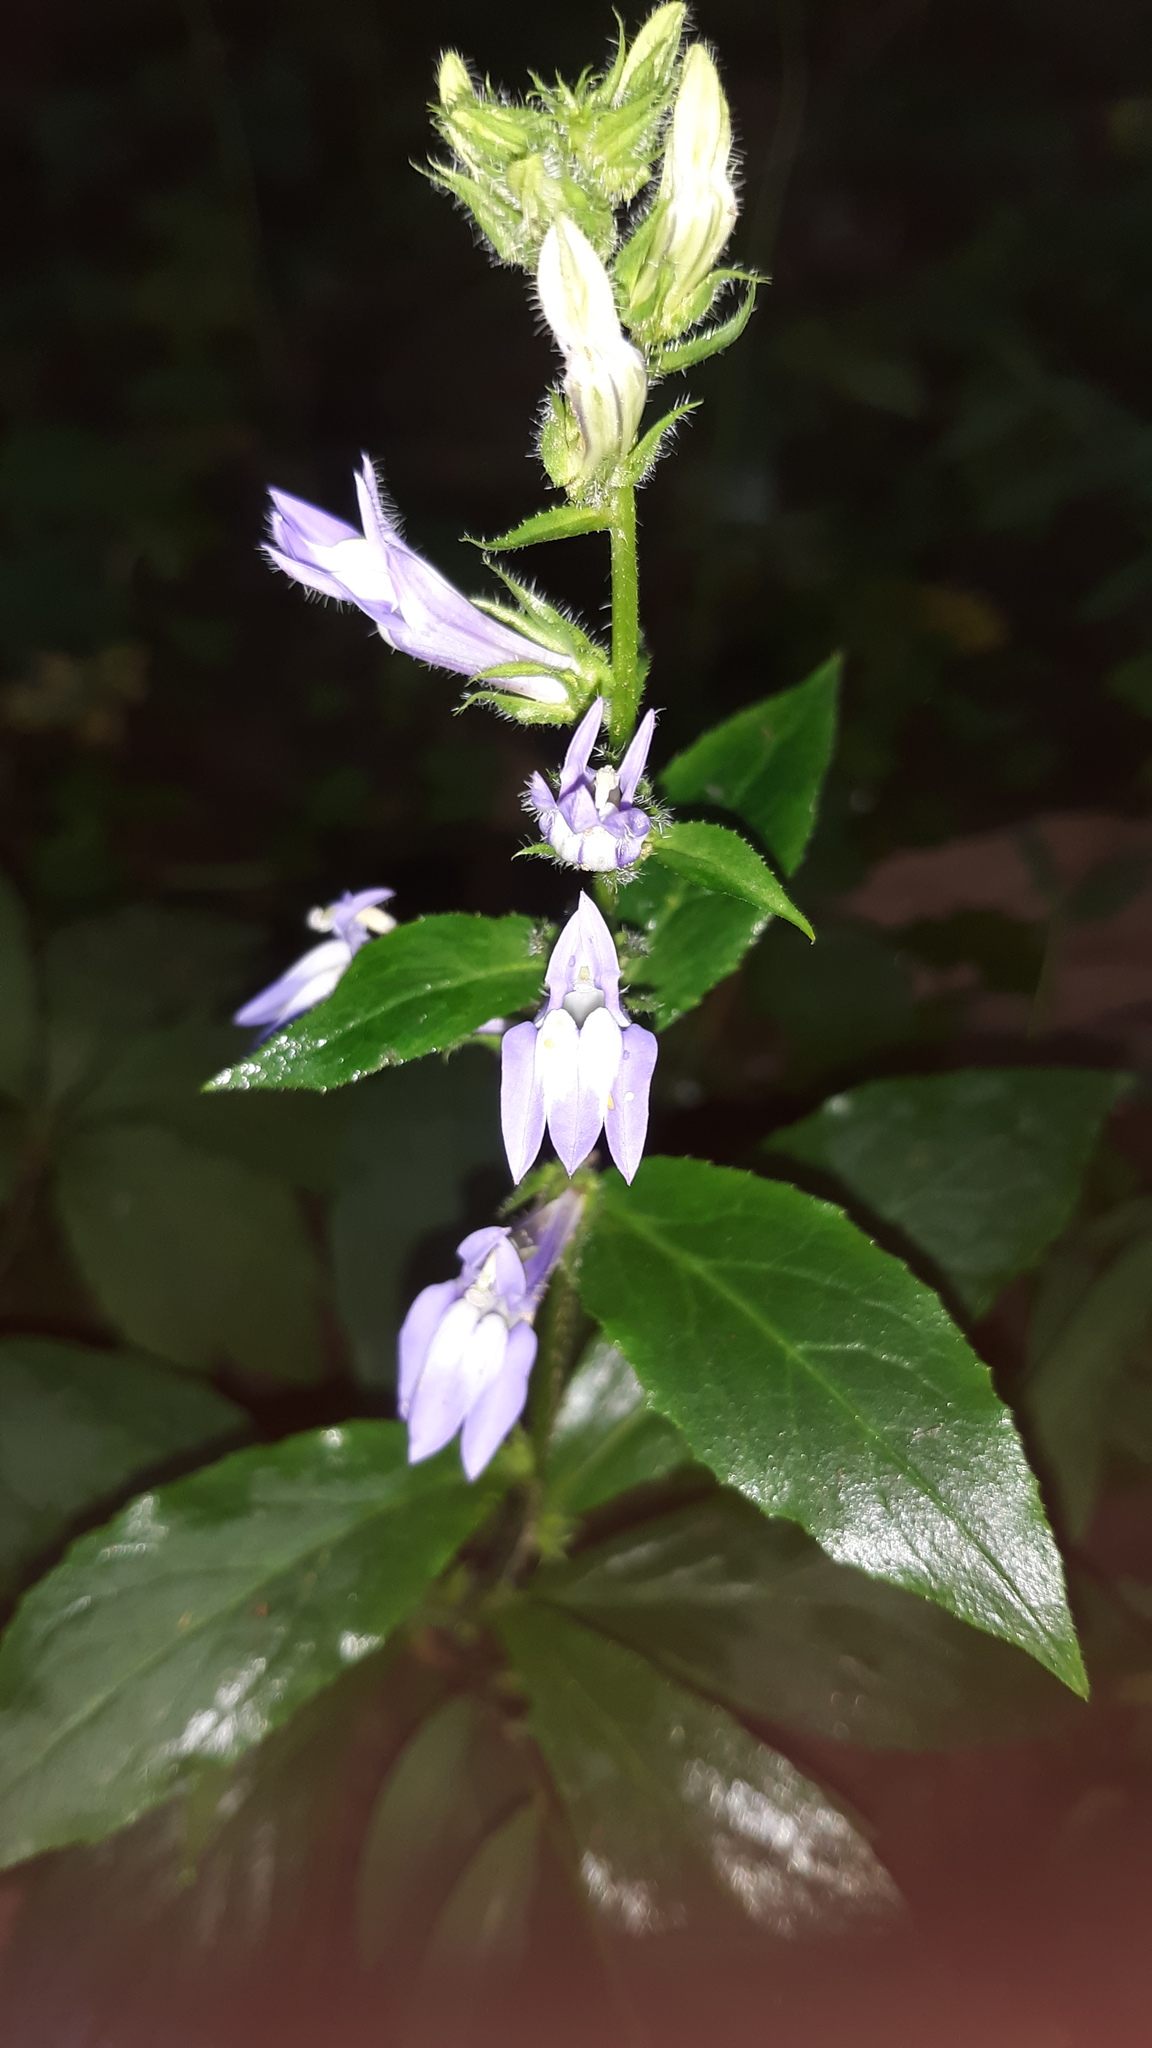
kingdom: Plantae
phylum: Tracheophyta
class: Magnoliopsida
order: Asterales
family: Campanulaceae
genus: Lobelia
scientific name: Lobelia siphilitica
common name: Great lobelia
